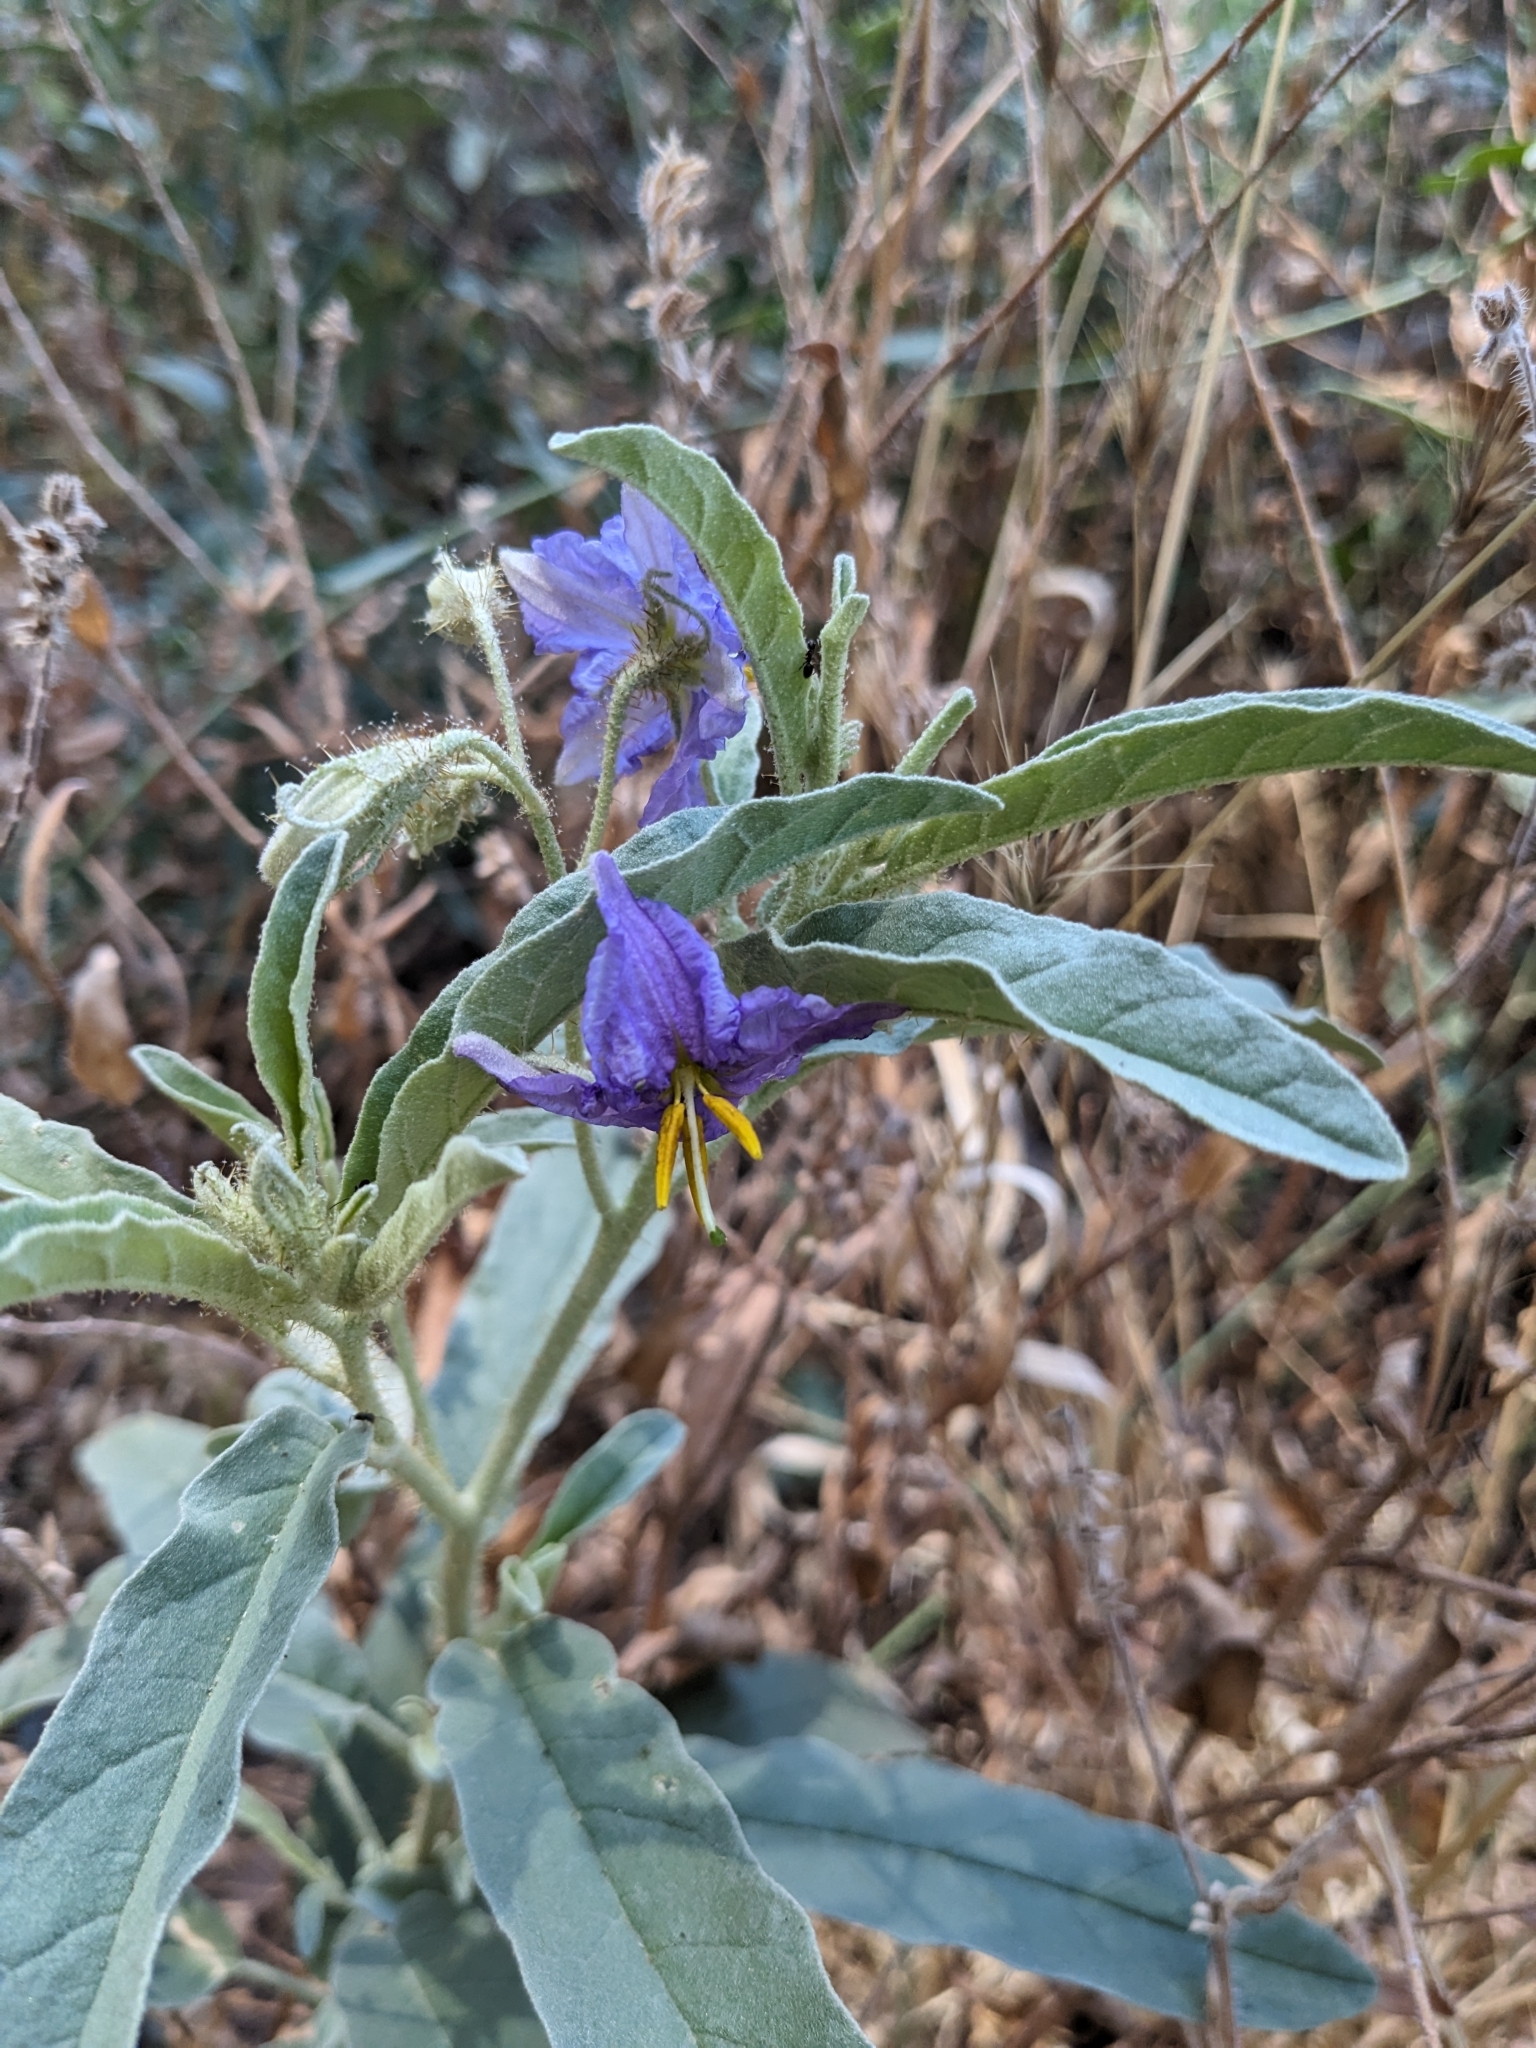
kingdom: Plantae
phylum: Tracheophyta
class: Magnoliopsida
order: Solanales
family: Solanaceae
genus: Solanum
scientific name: Solanum elaeagnifolium
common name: Silverleaf nightshade
